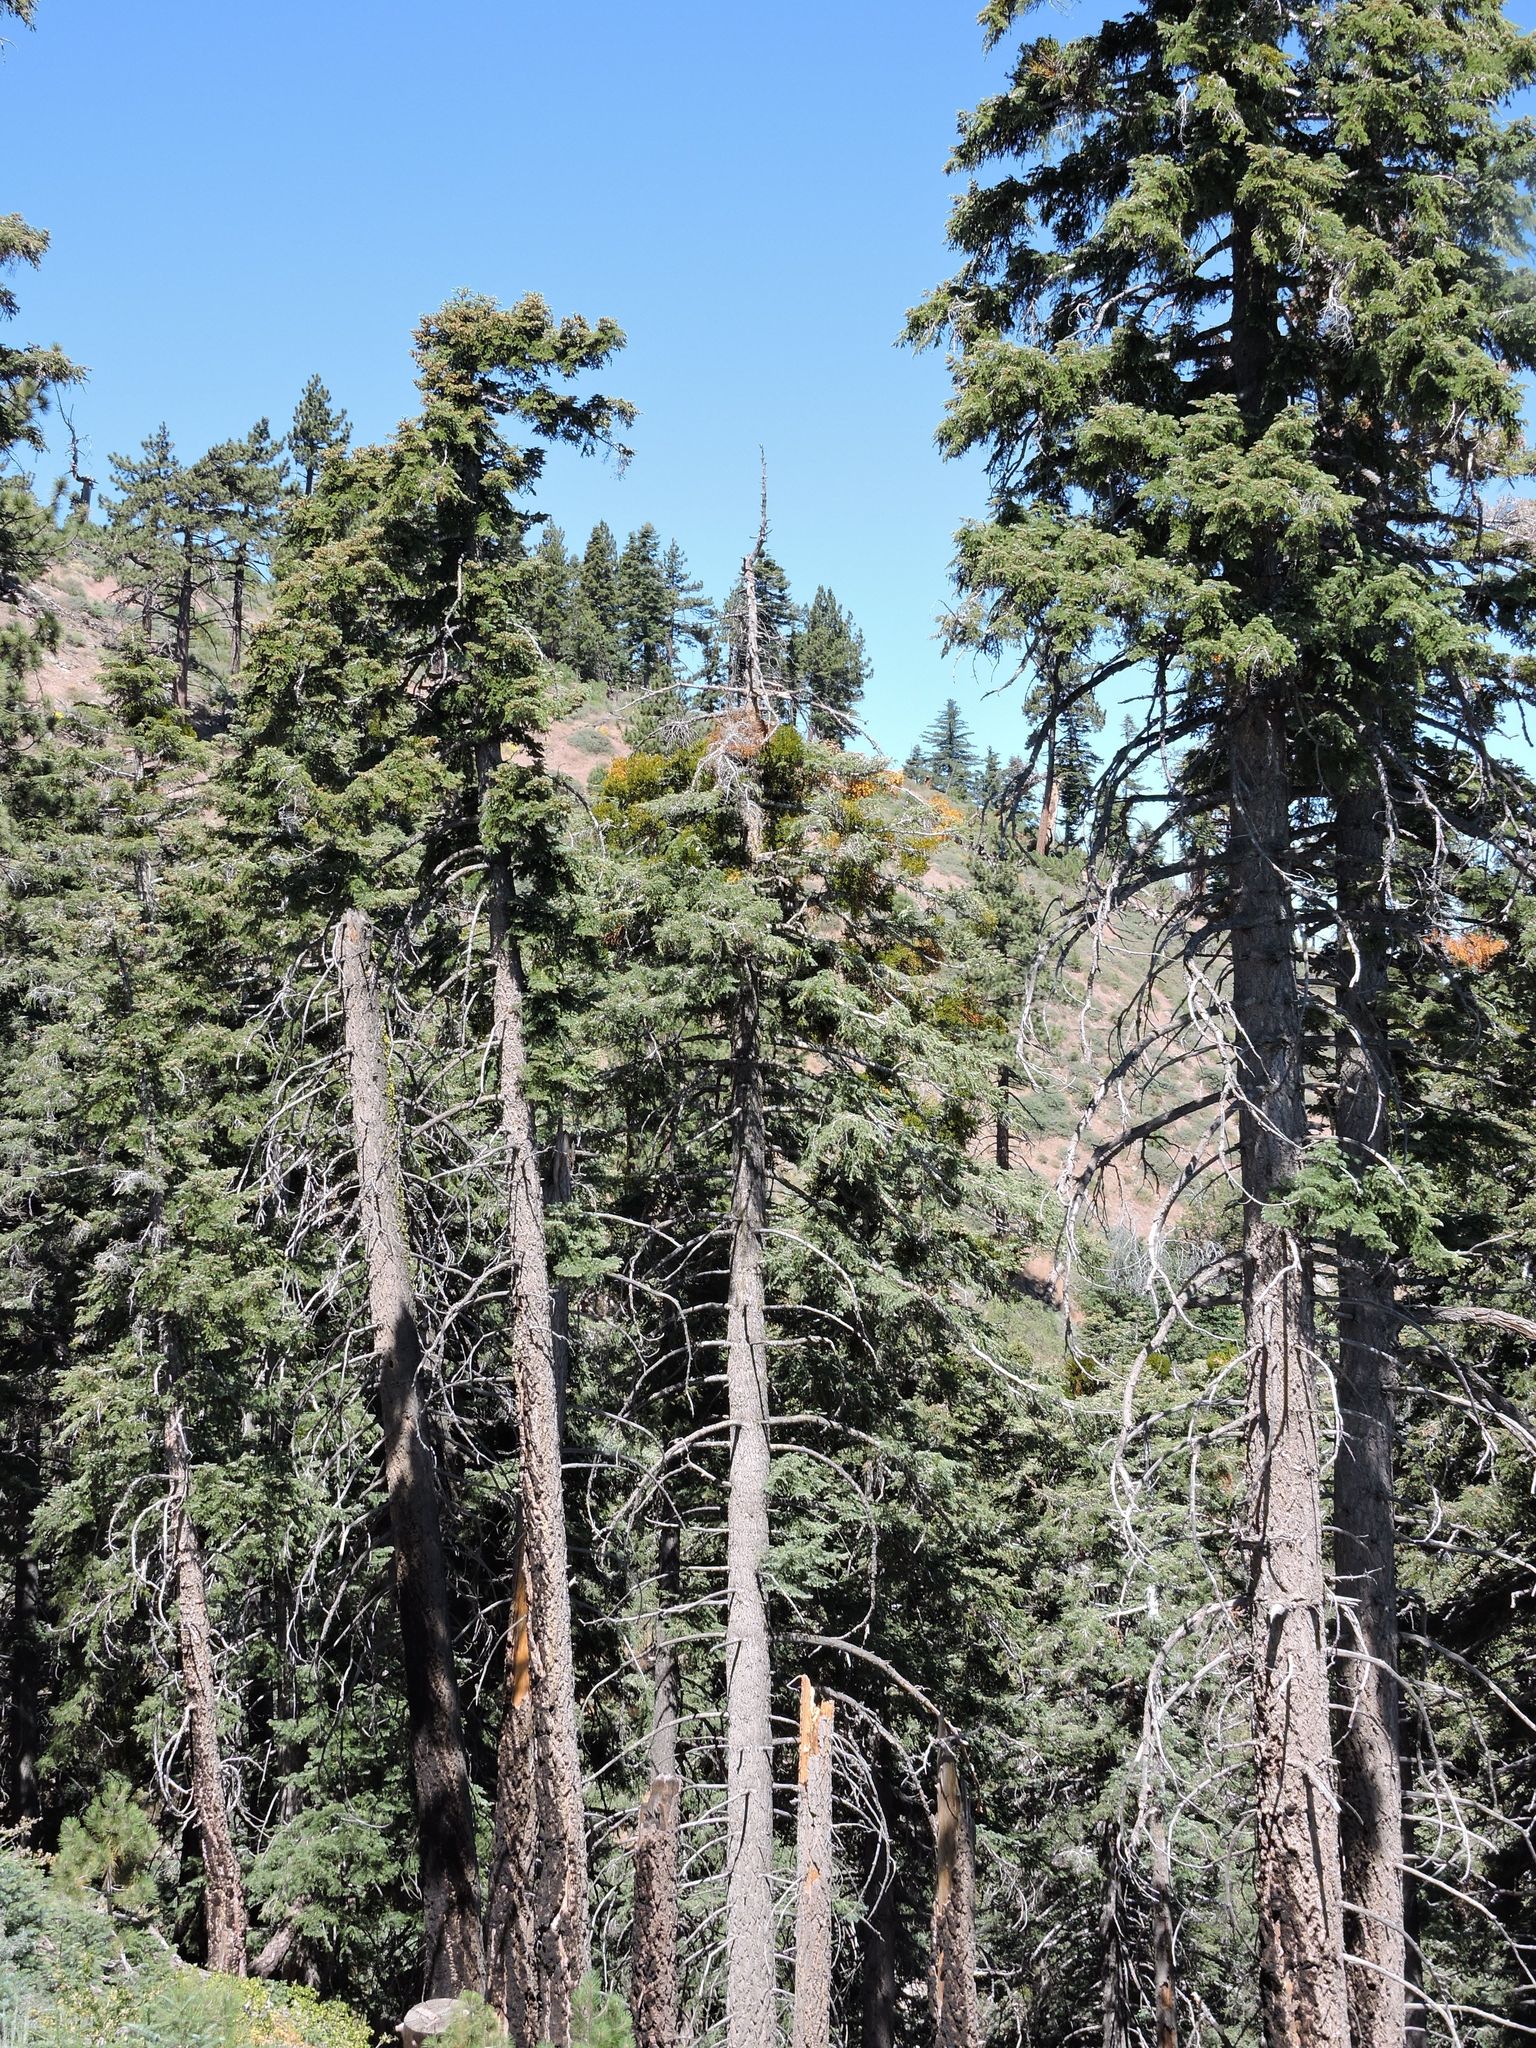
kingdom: Plantae
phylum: Tracheophyta
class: Magnoliopsida
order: Santalales
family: Viscaceae
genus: Phoradendron
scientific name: Phoradendron bolleanum
